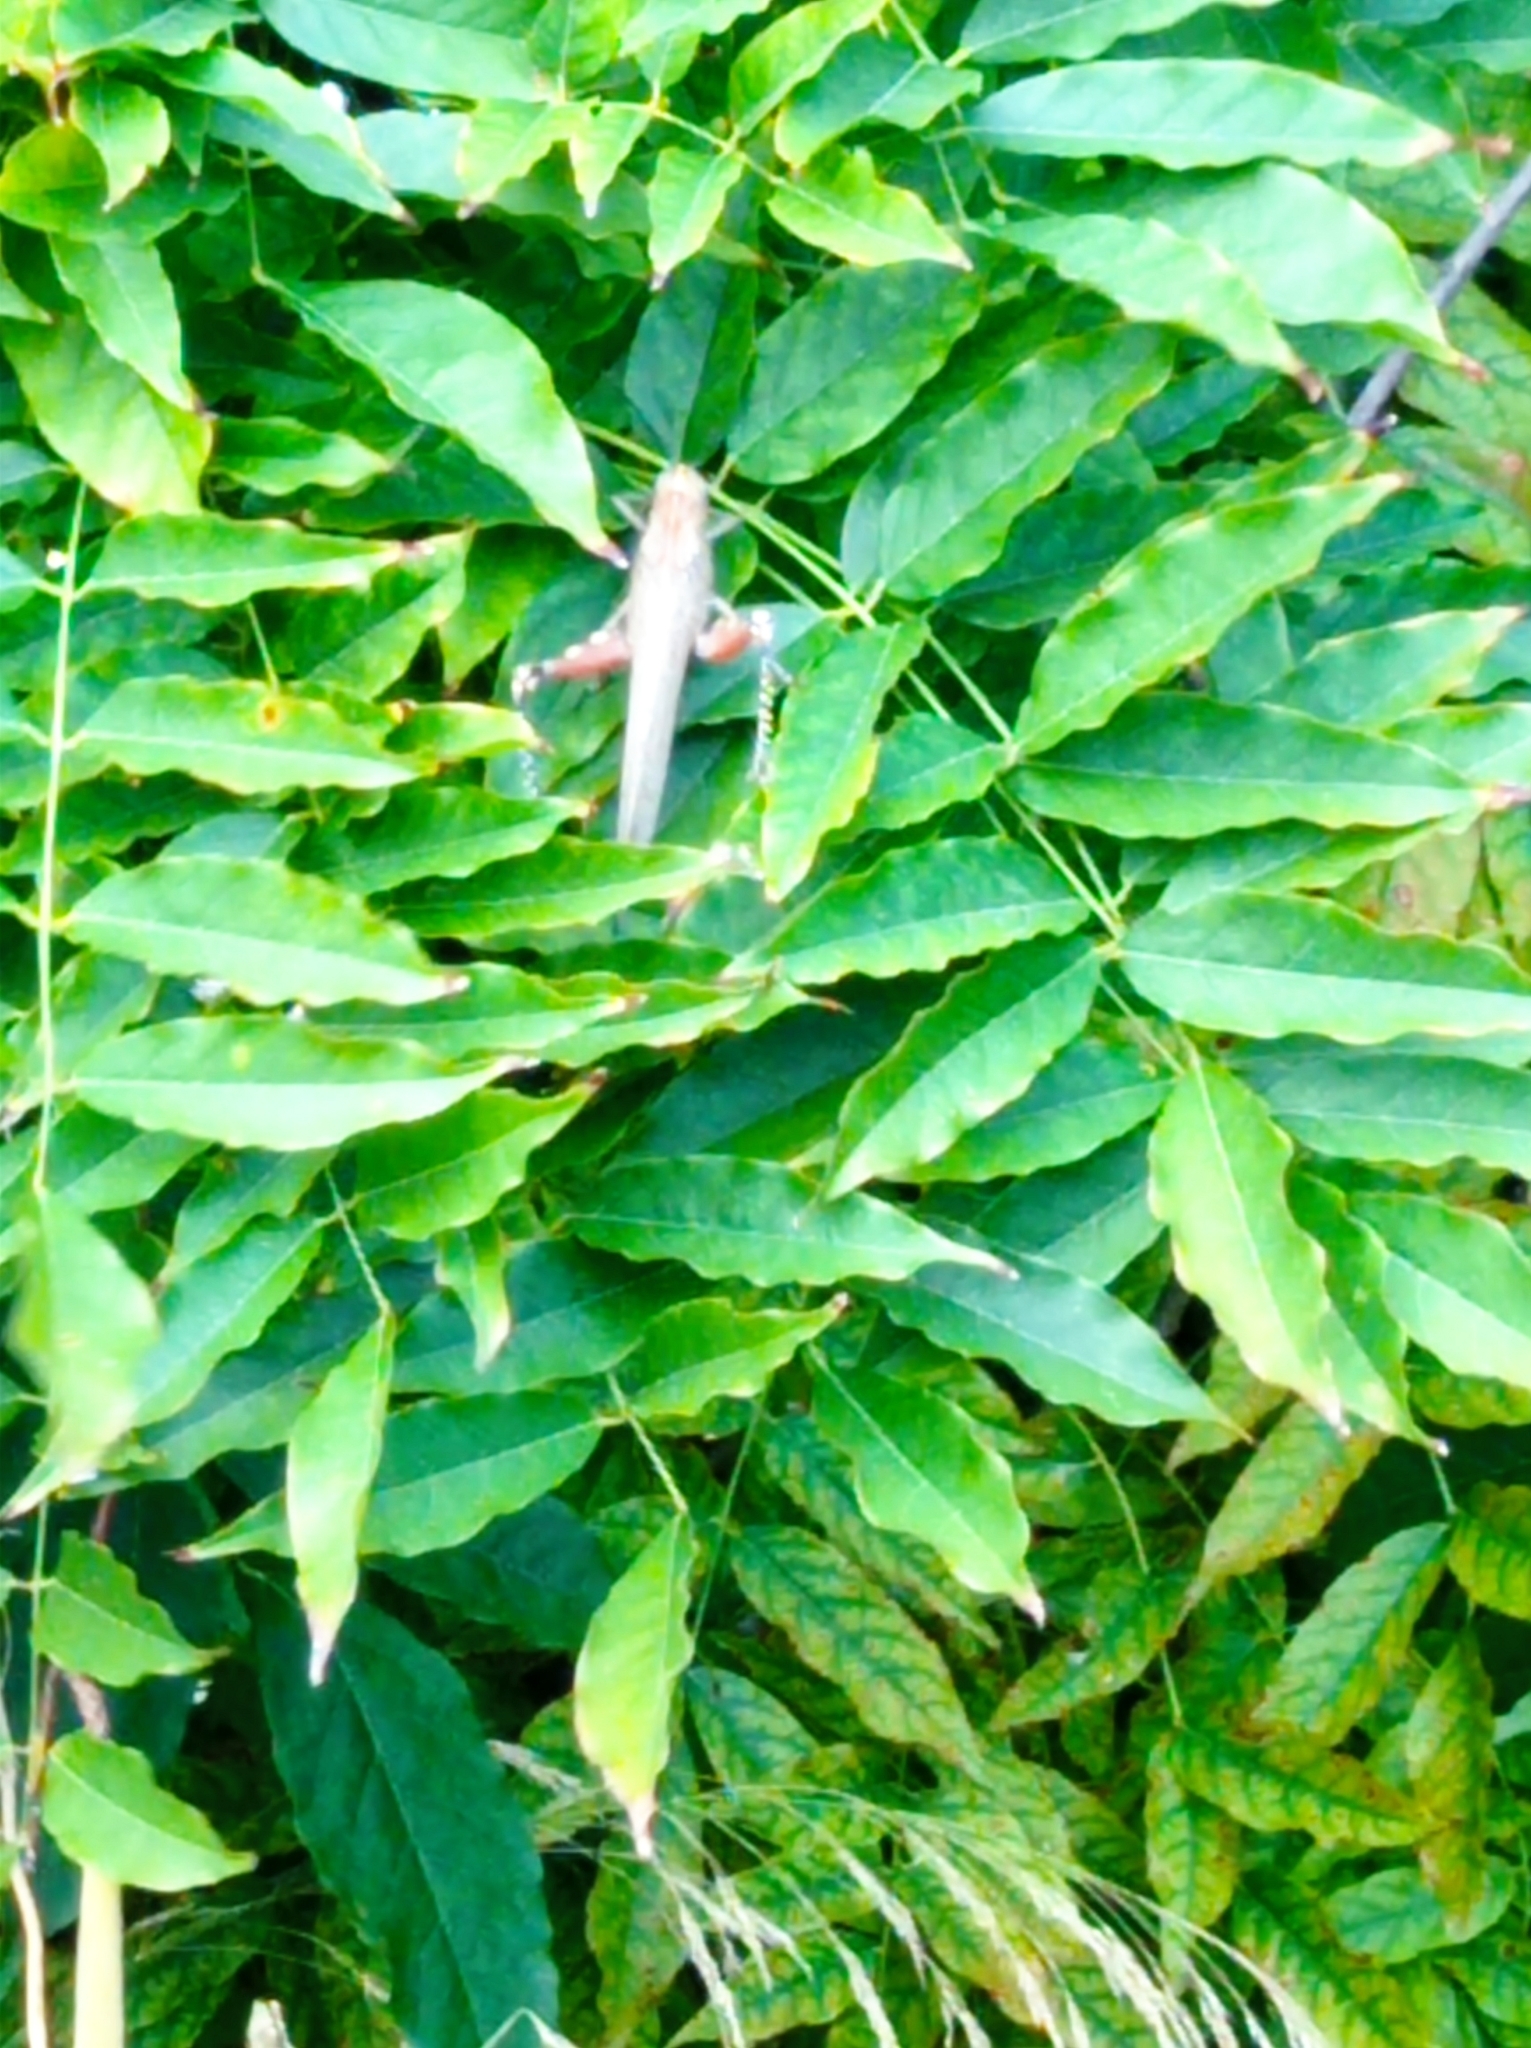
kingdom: Animalia
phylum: Arthropoda
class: Insecta
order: Orthoptera
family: Acrididae
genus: Anacridium
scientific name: Anacridium aegyptium
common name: Egyptian grasshopper
